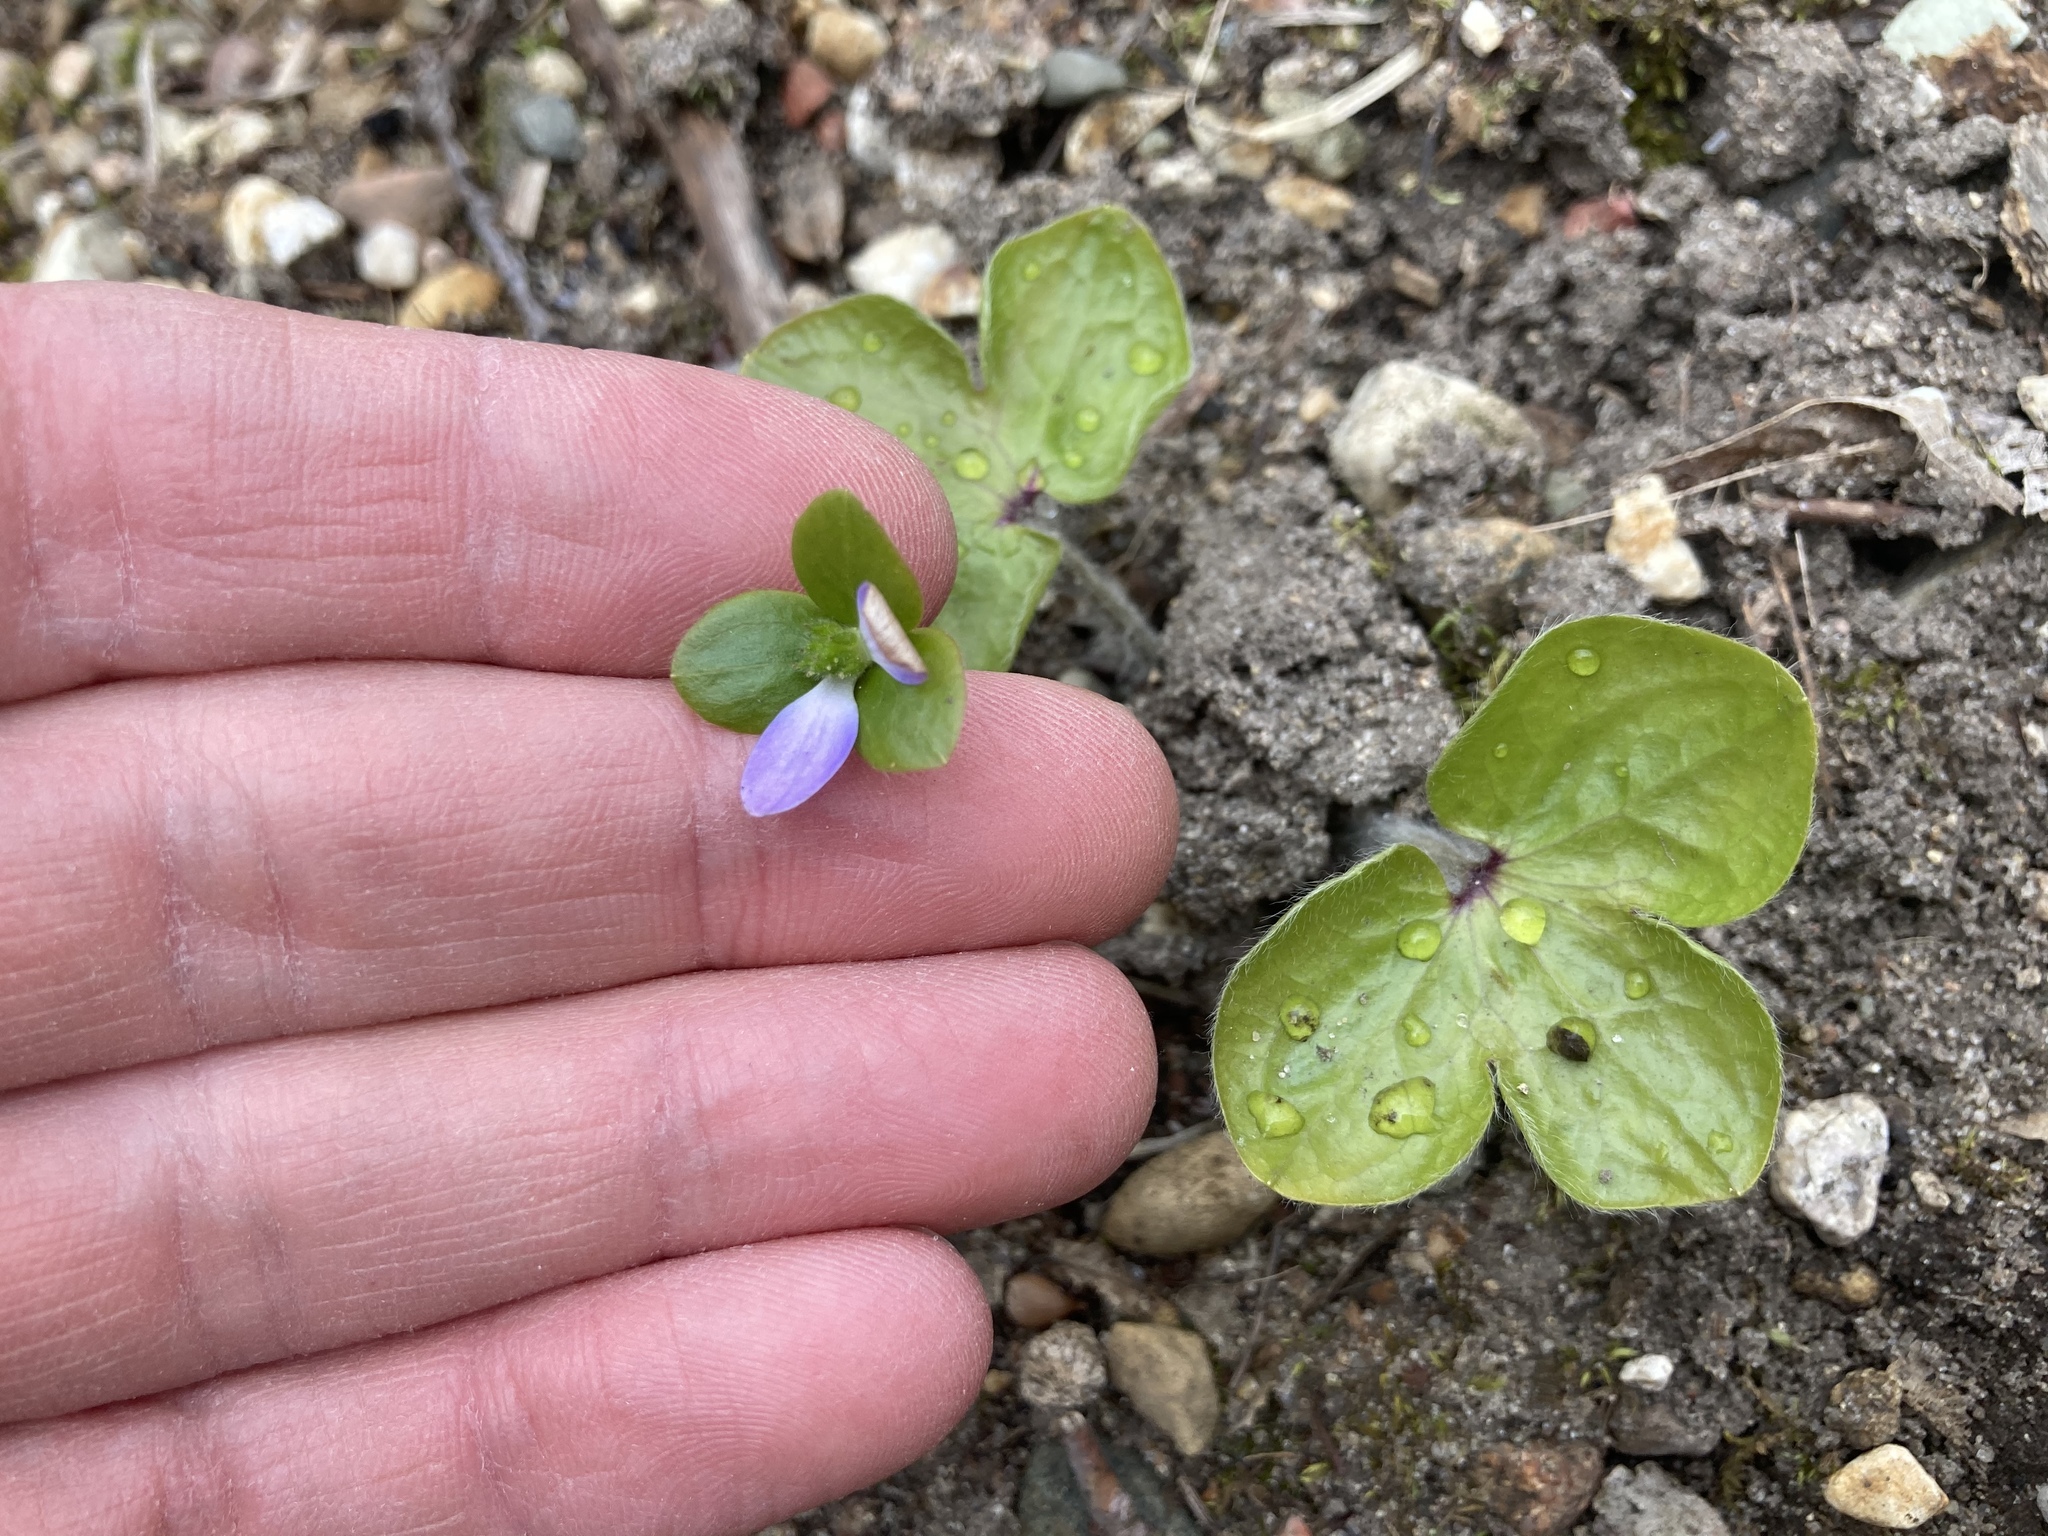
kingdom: Plantae
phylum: Tracheophyta
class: Magnoliopsida
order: Ranunculales
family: Ranunculaceae
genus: Hepatica
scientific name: Hepatica americana
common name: American hepatica
